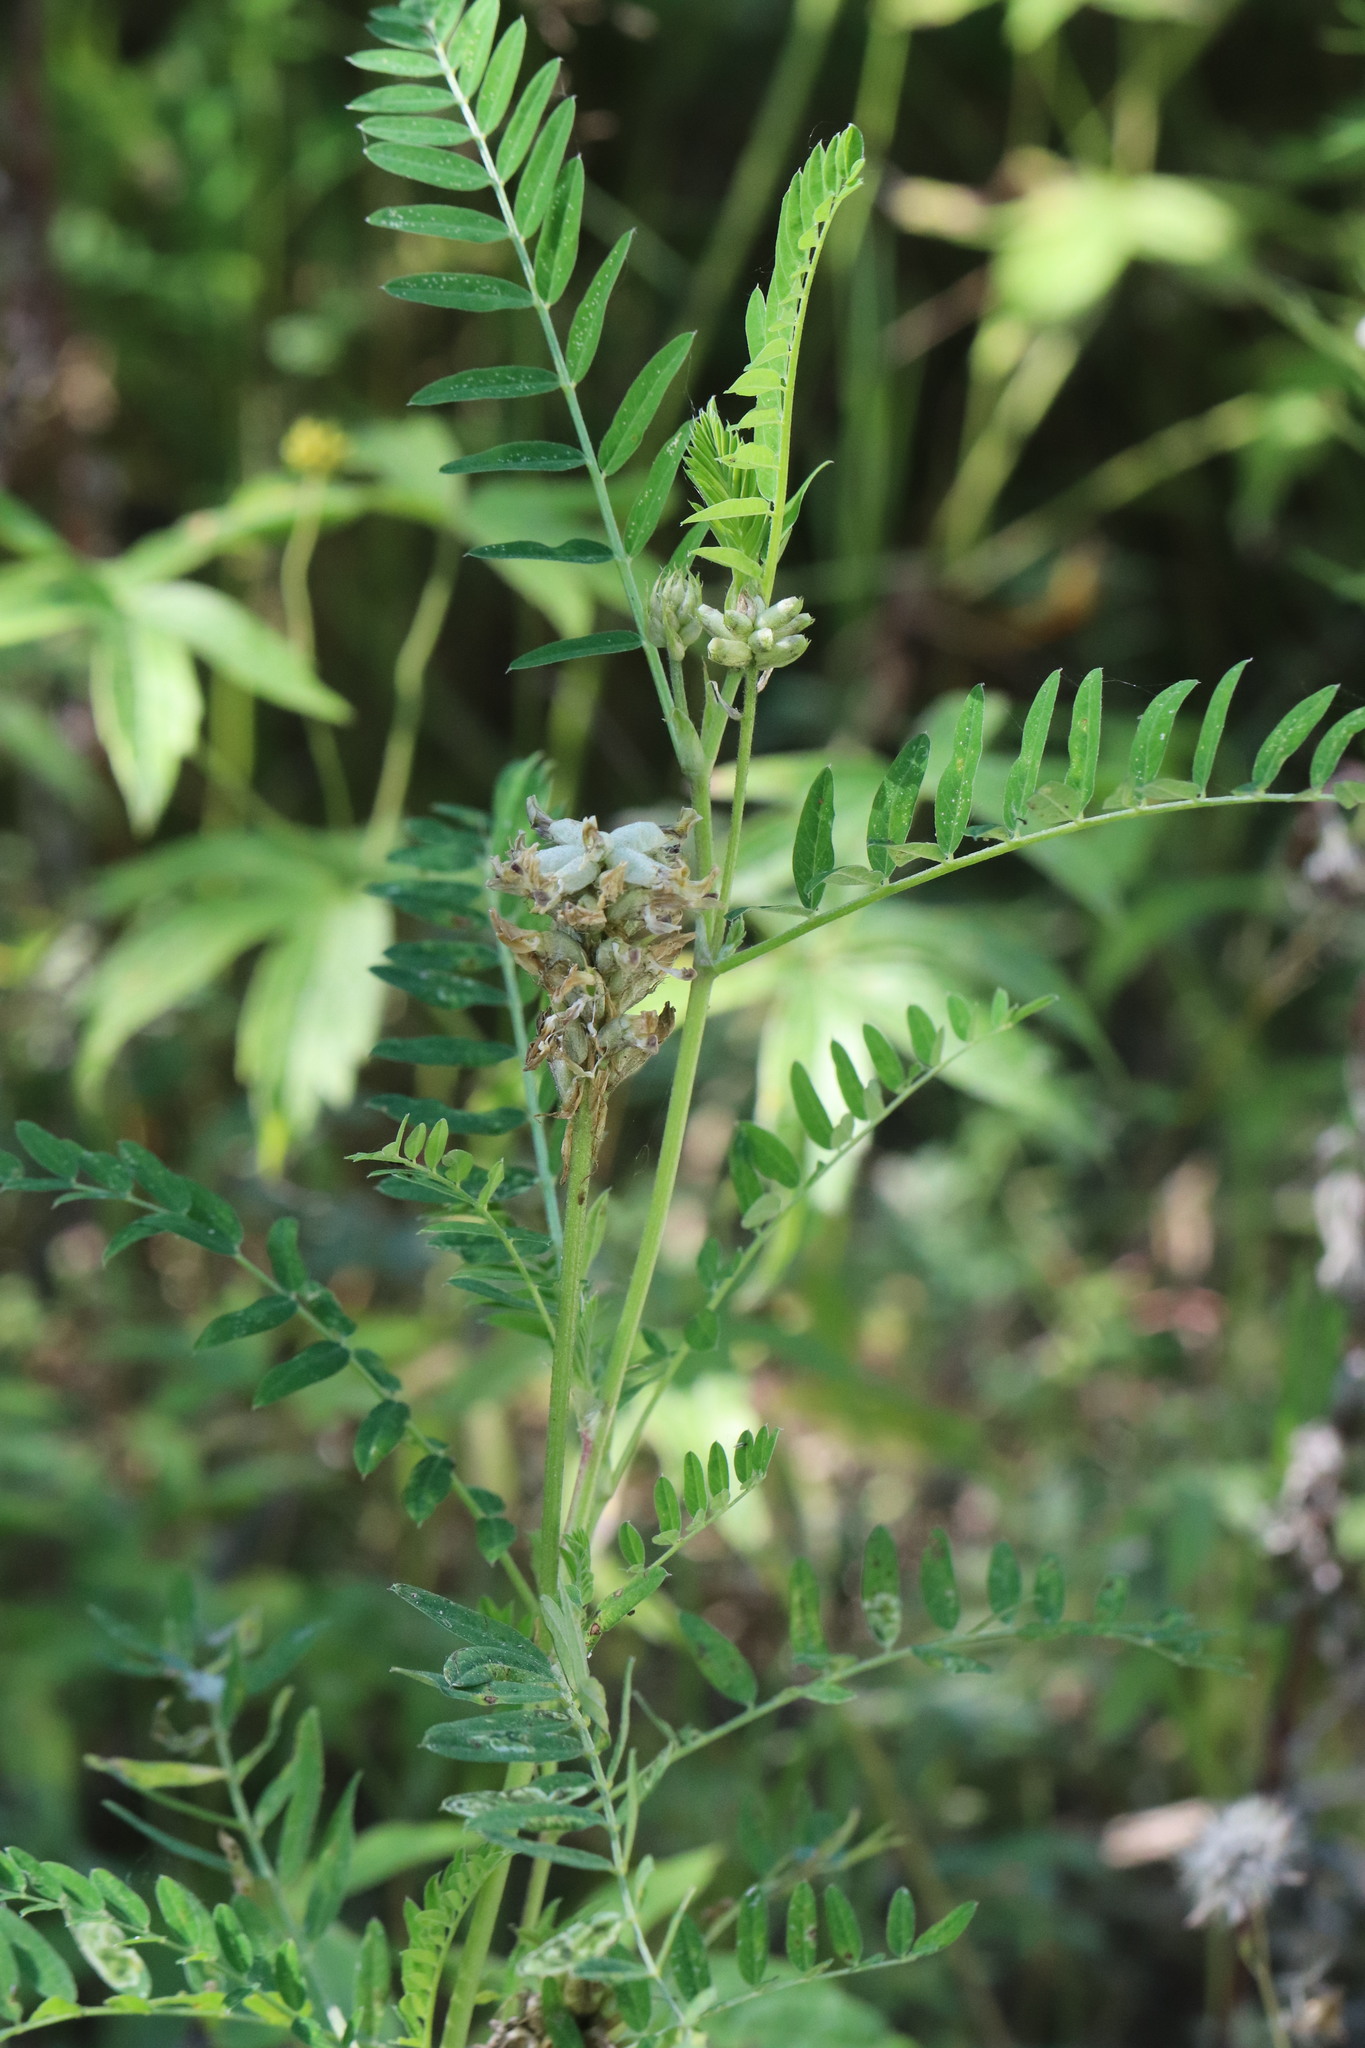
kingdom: Plantae
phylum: Tracheophyta
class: Magnoliopsida
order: Fabales
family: Fabaceae
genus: Astragalus
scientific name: Astragalus uliginosus
